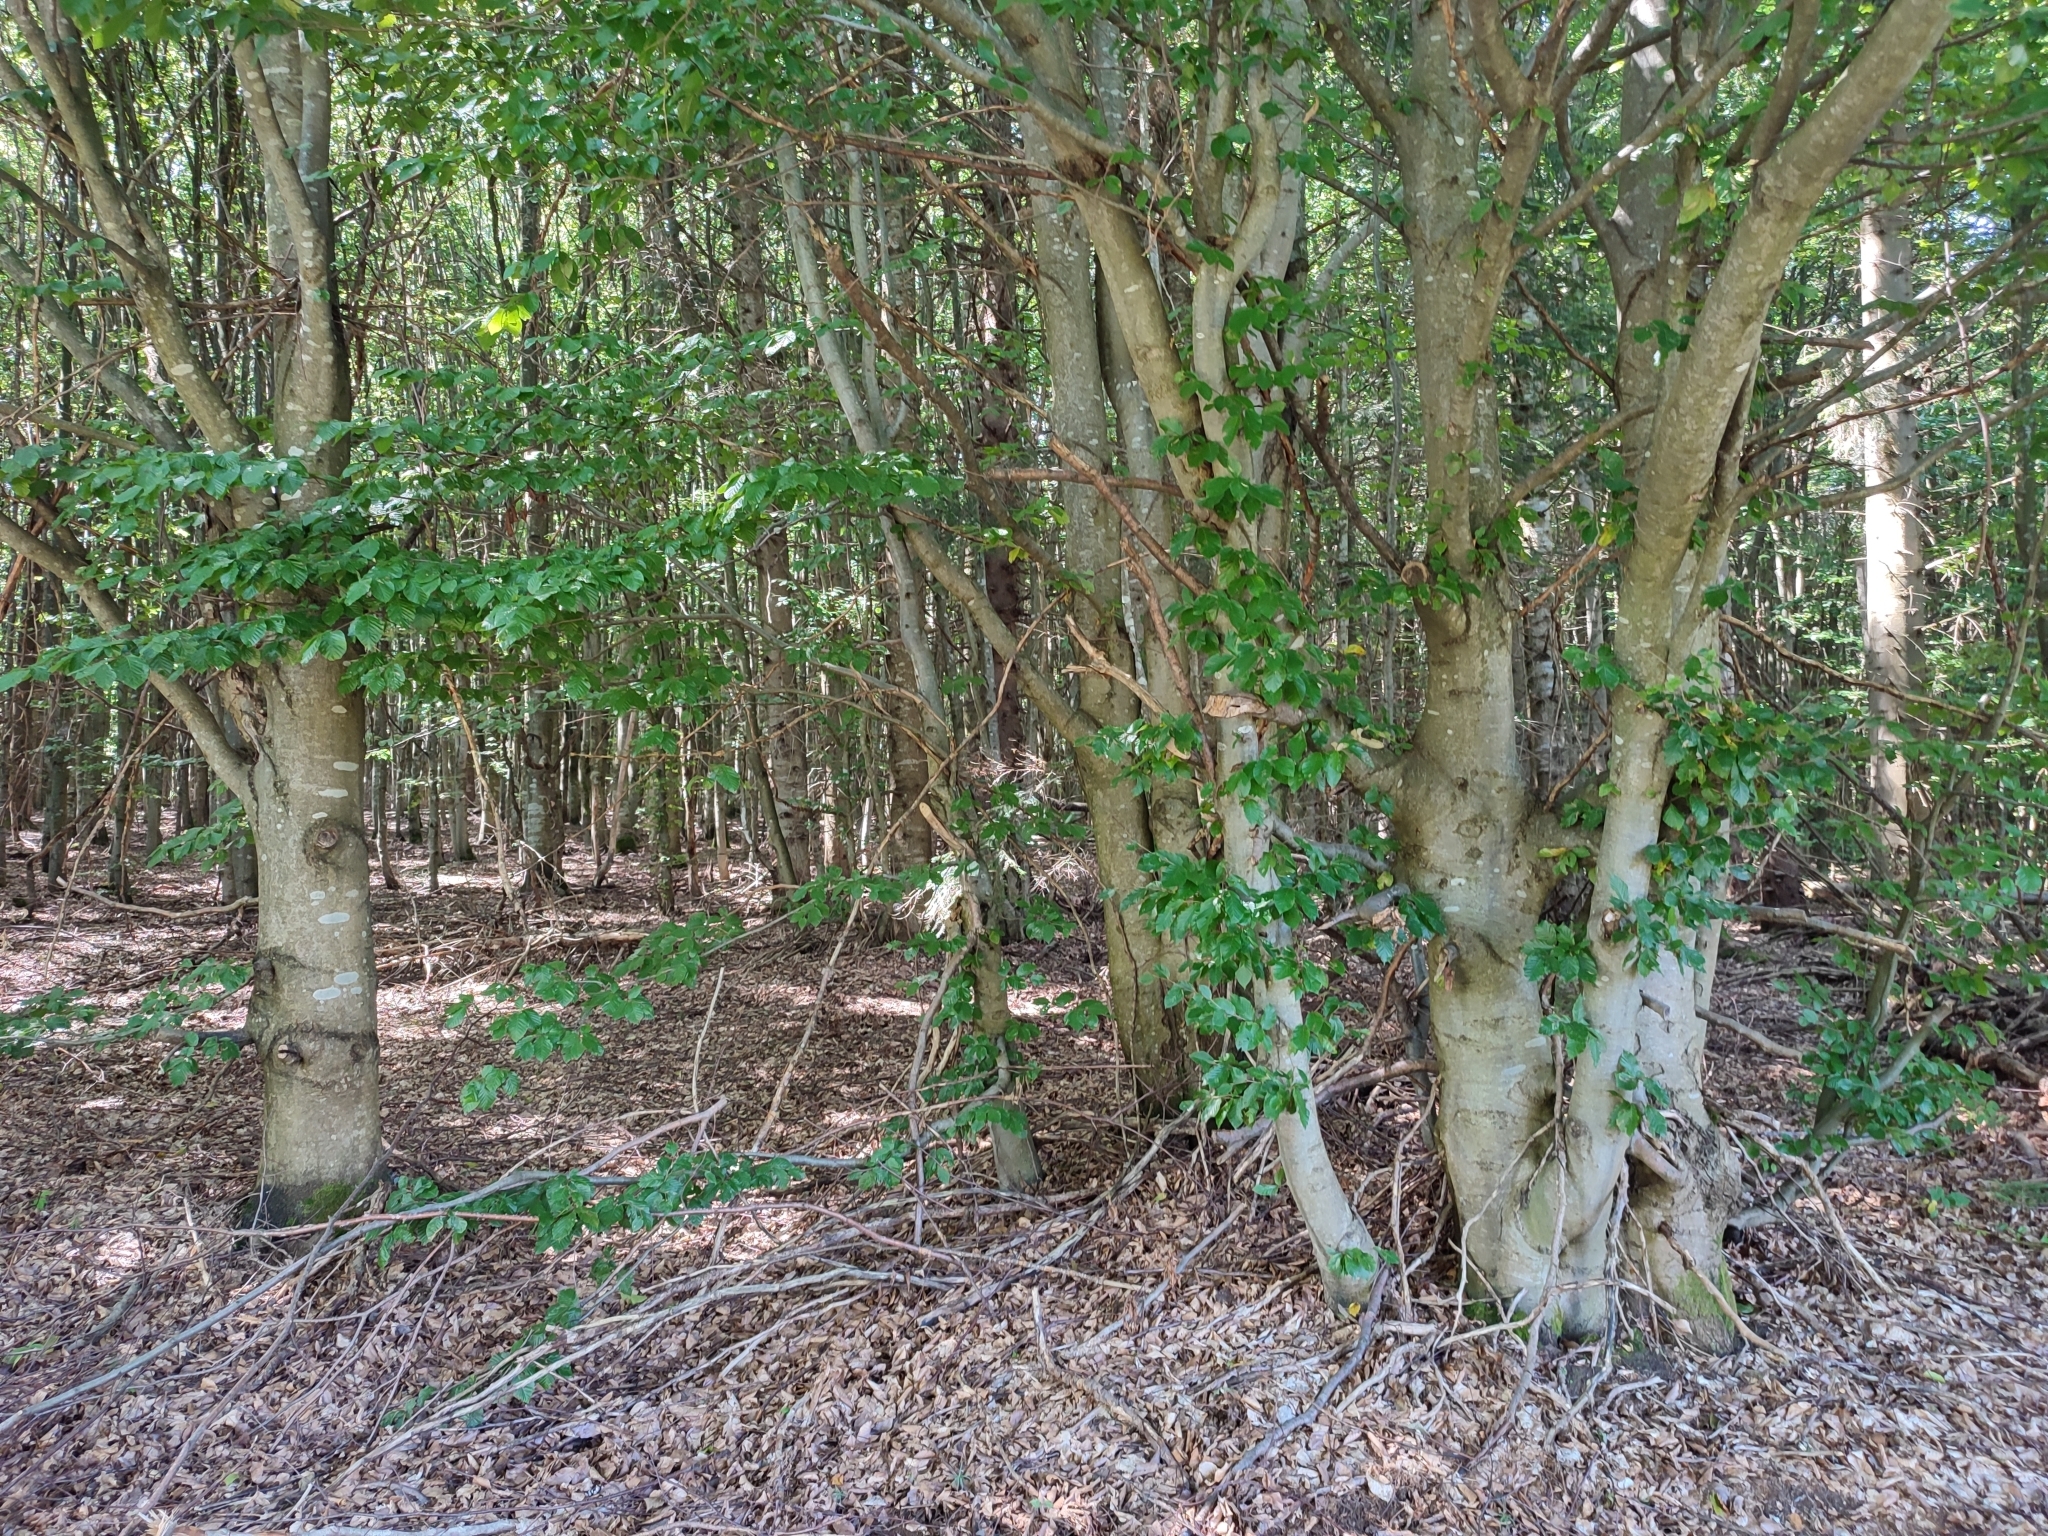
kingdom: Plantae
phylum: Tracheophyta
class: Magnoliopsida
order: Fagales
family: Fagaceae
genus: Fagus
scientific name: Fagus sylvatica
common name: Beech
